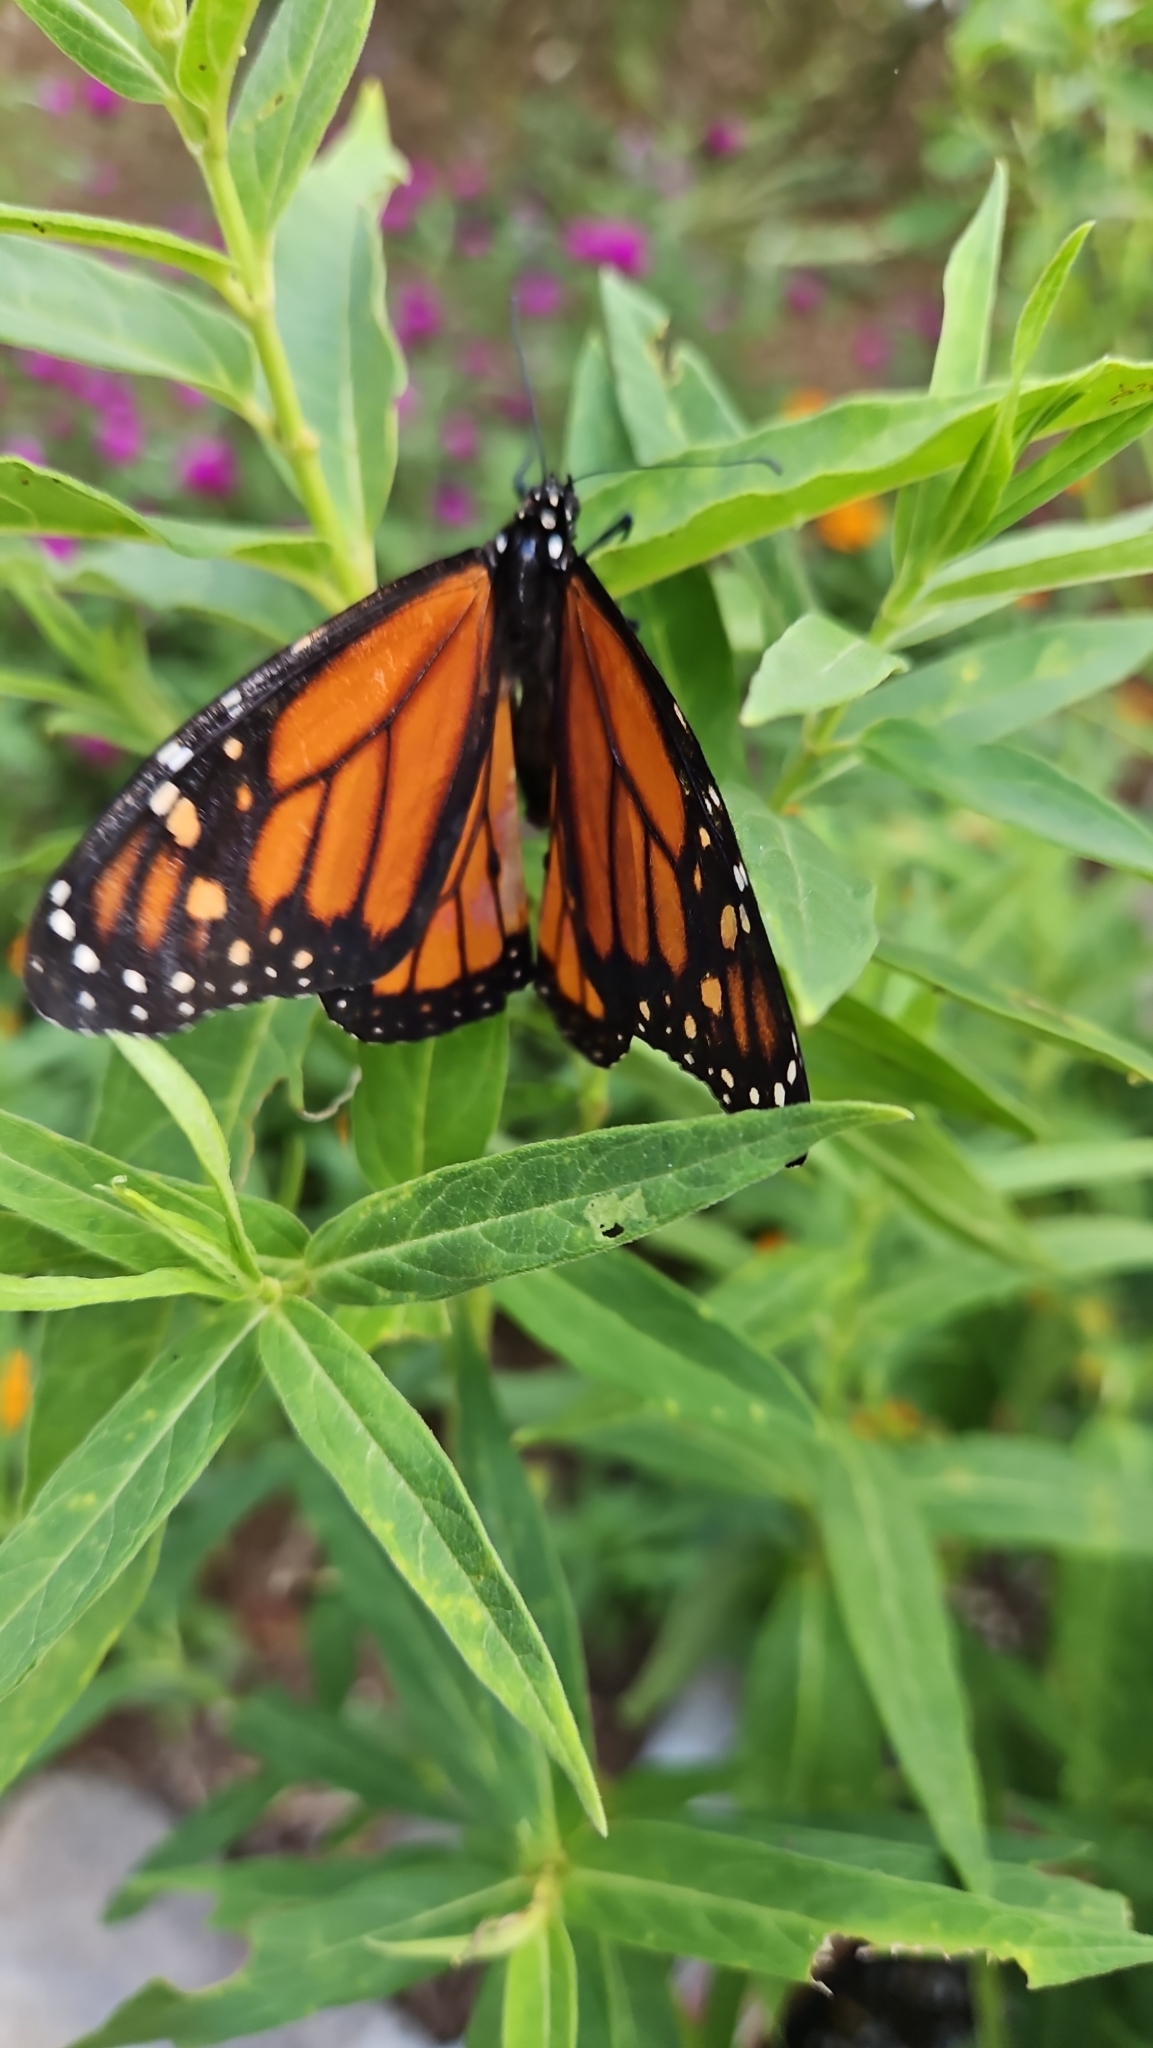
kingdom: Animalia
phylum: Arthropoda
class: Insecta
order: Lepidoptera
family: Nymphalidae
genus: Danaus
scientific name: Danaus plexippus
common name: Monarch
